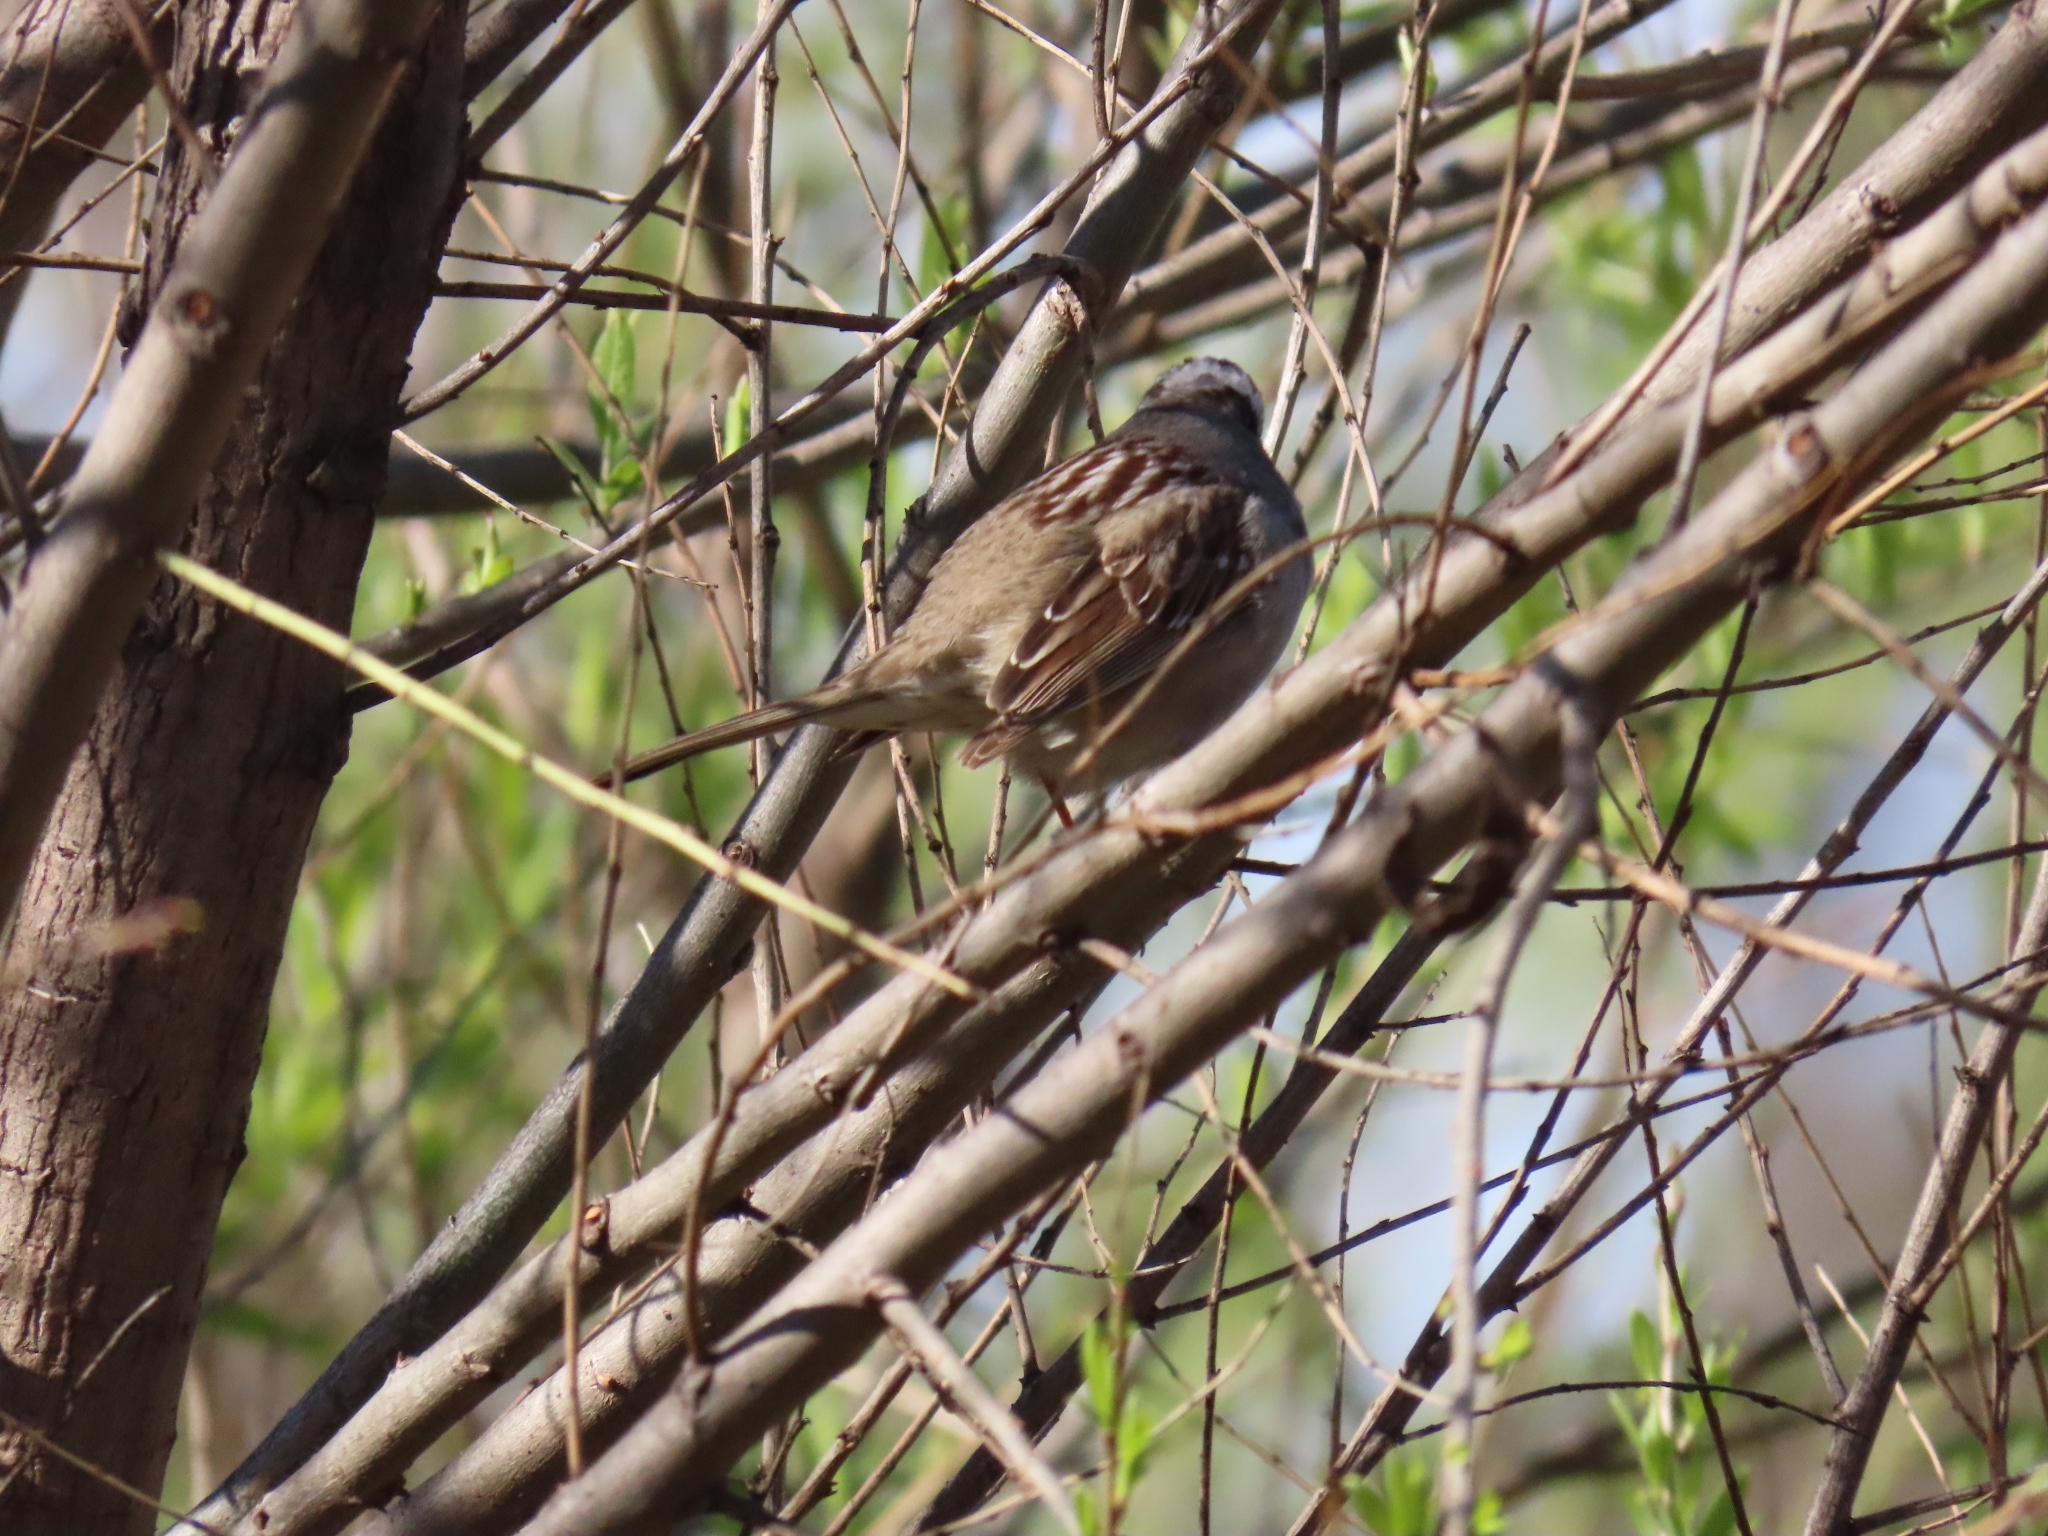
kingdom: Animalia
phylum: Chordata
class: Aves
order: Passeriformes
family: Passerellidae
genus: Zonotrichia
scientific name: Zonotrichia leucophrys
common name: White-crowned sparrow
